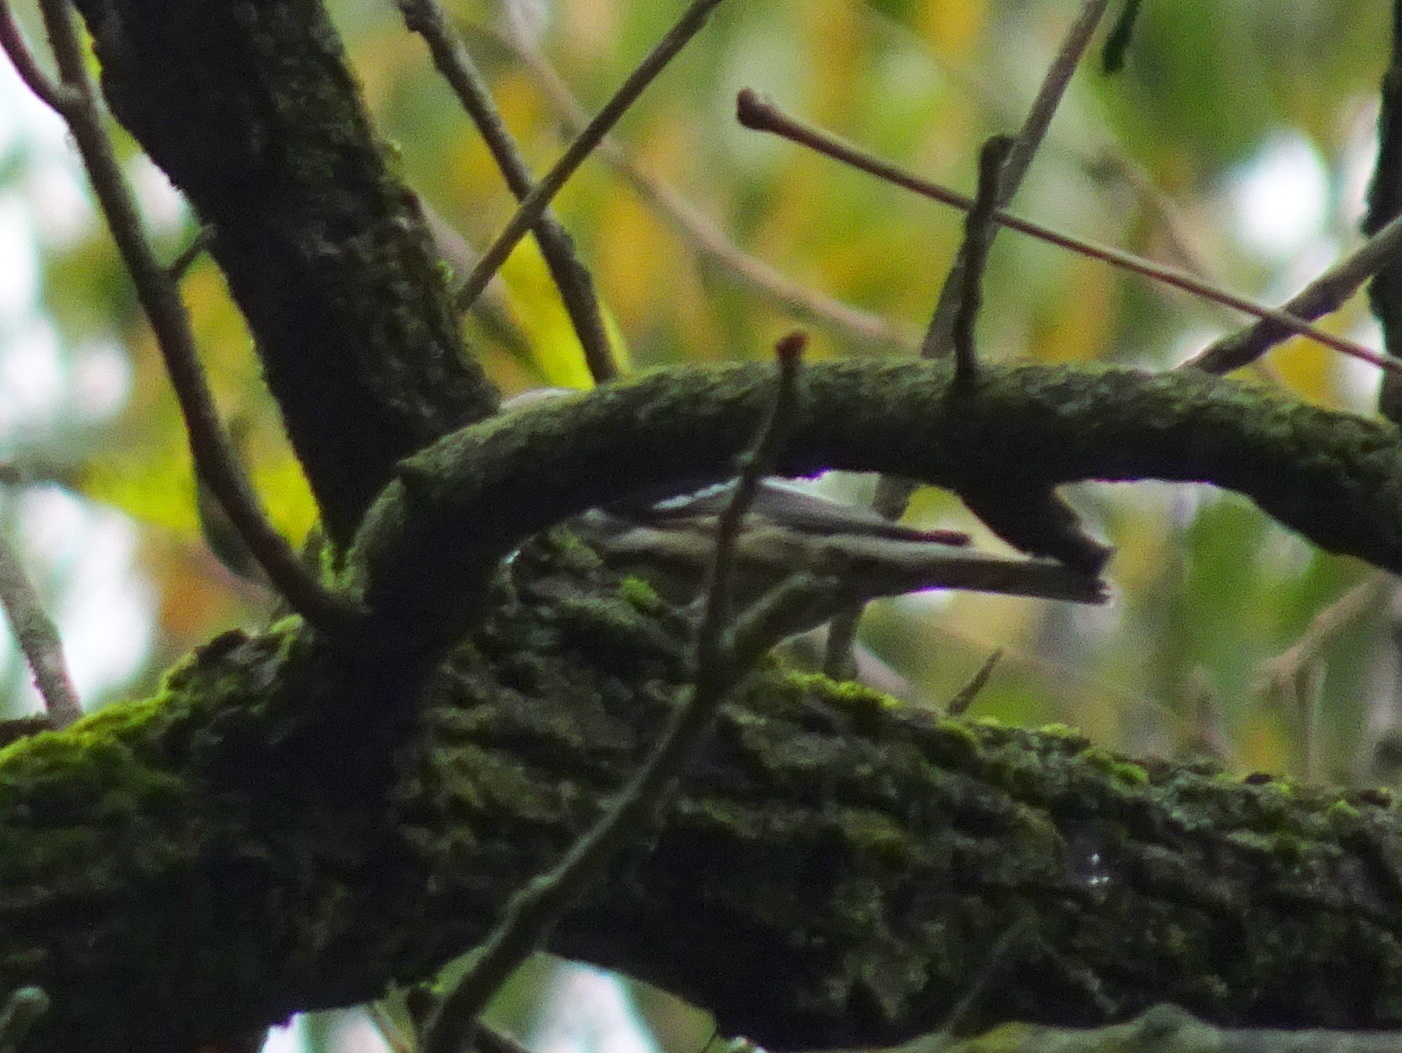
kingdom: Animalia
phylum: Chordata
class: Aves
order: Passeriformes
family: Parulidae
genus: Mniotilta
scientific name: Mniotilta varia
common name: Black-and-white warbler
